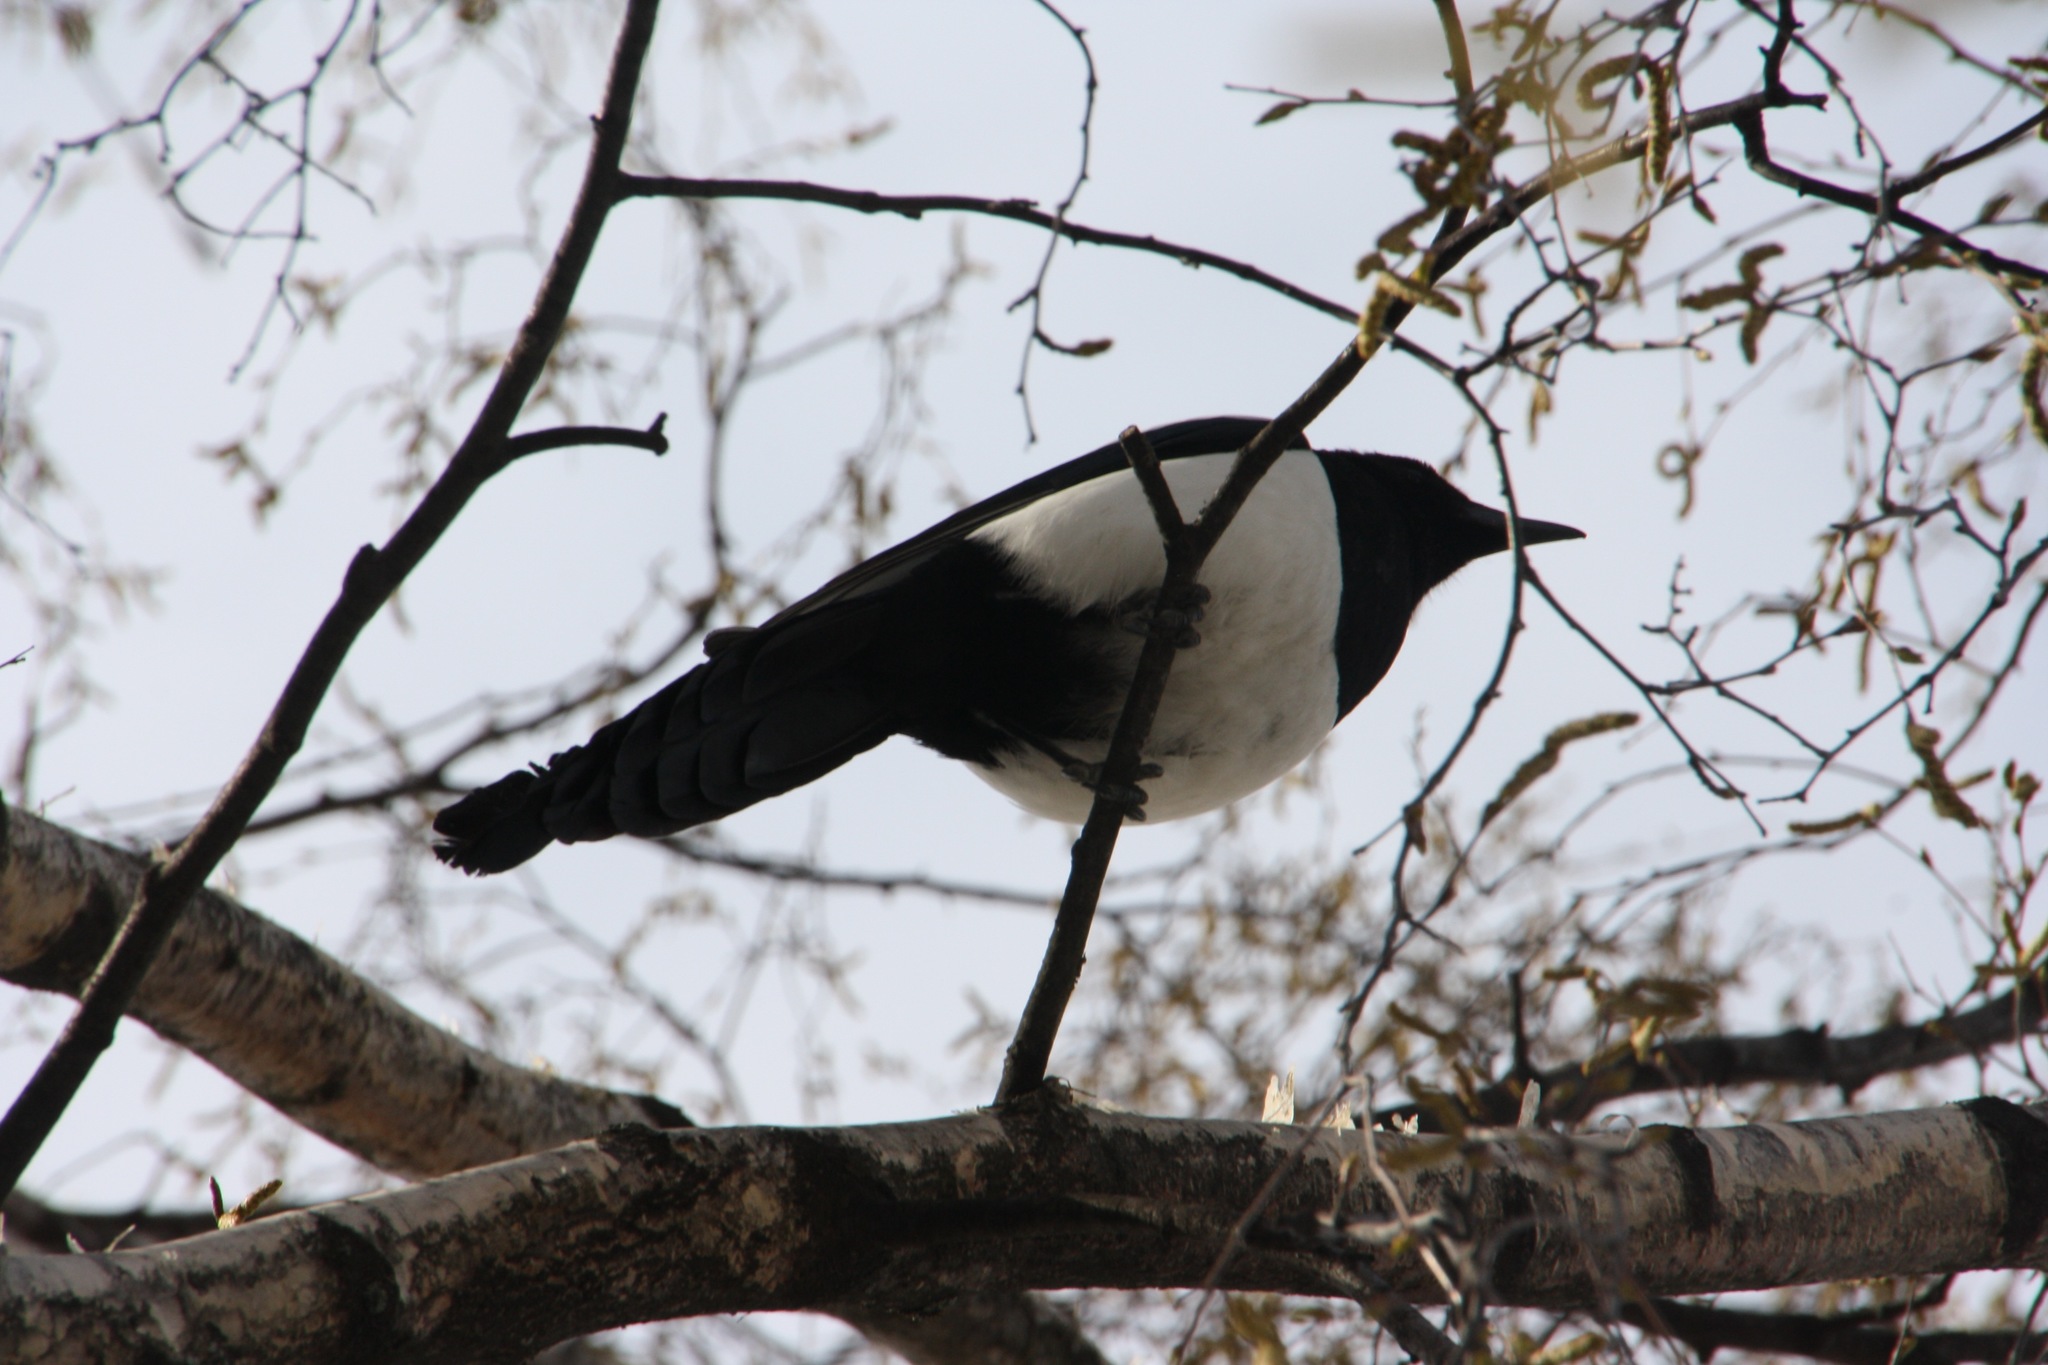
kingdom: Animalia
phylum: Chordata
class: Aves
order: Passeriformes
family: Corvidae
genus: Pica
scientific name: Pica pica
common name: Eurasian magpie
